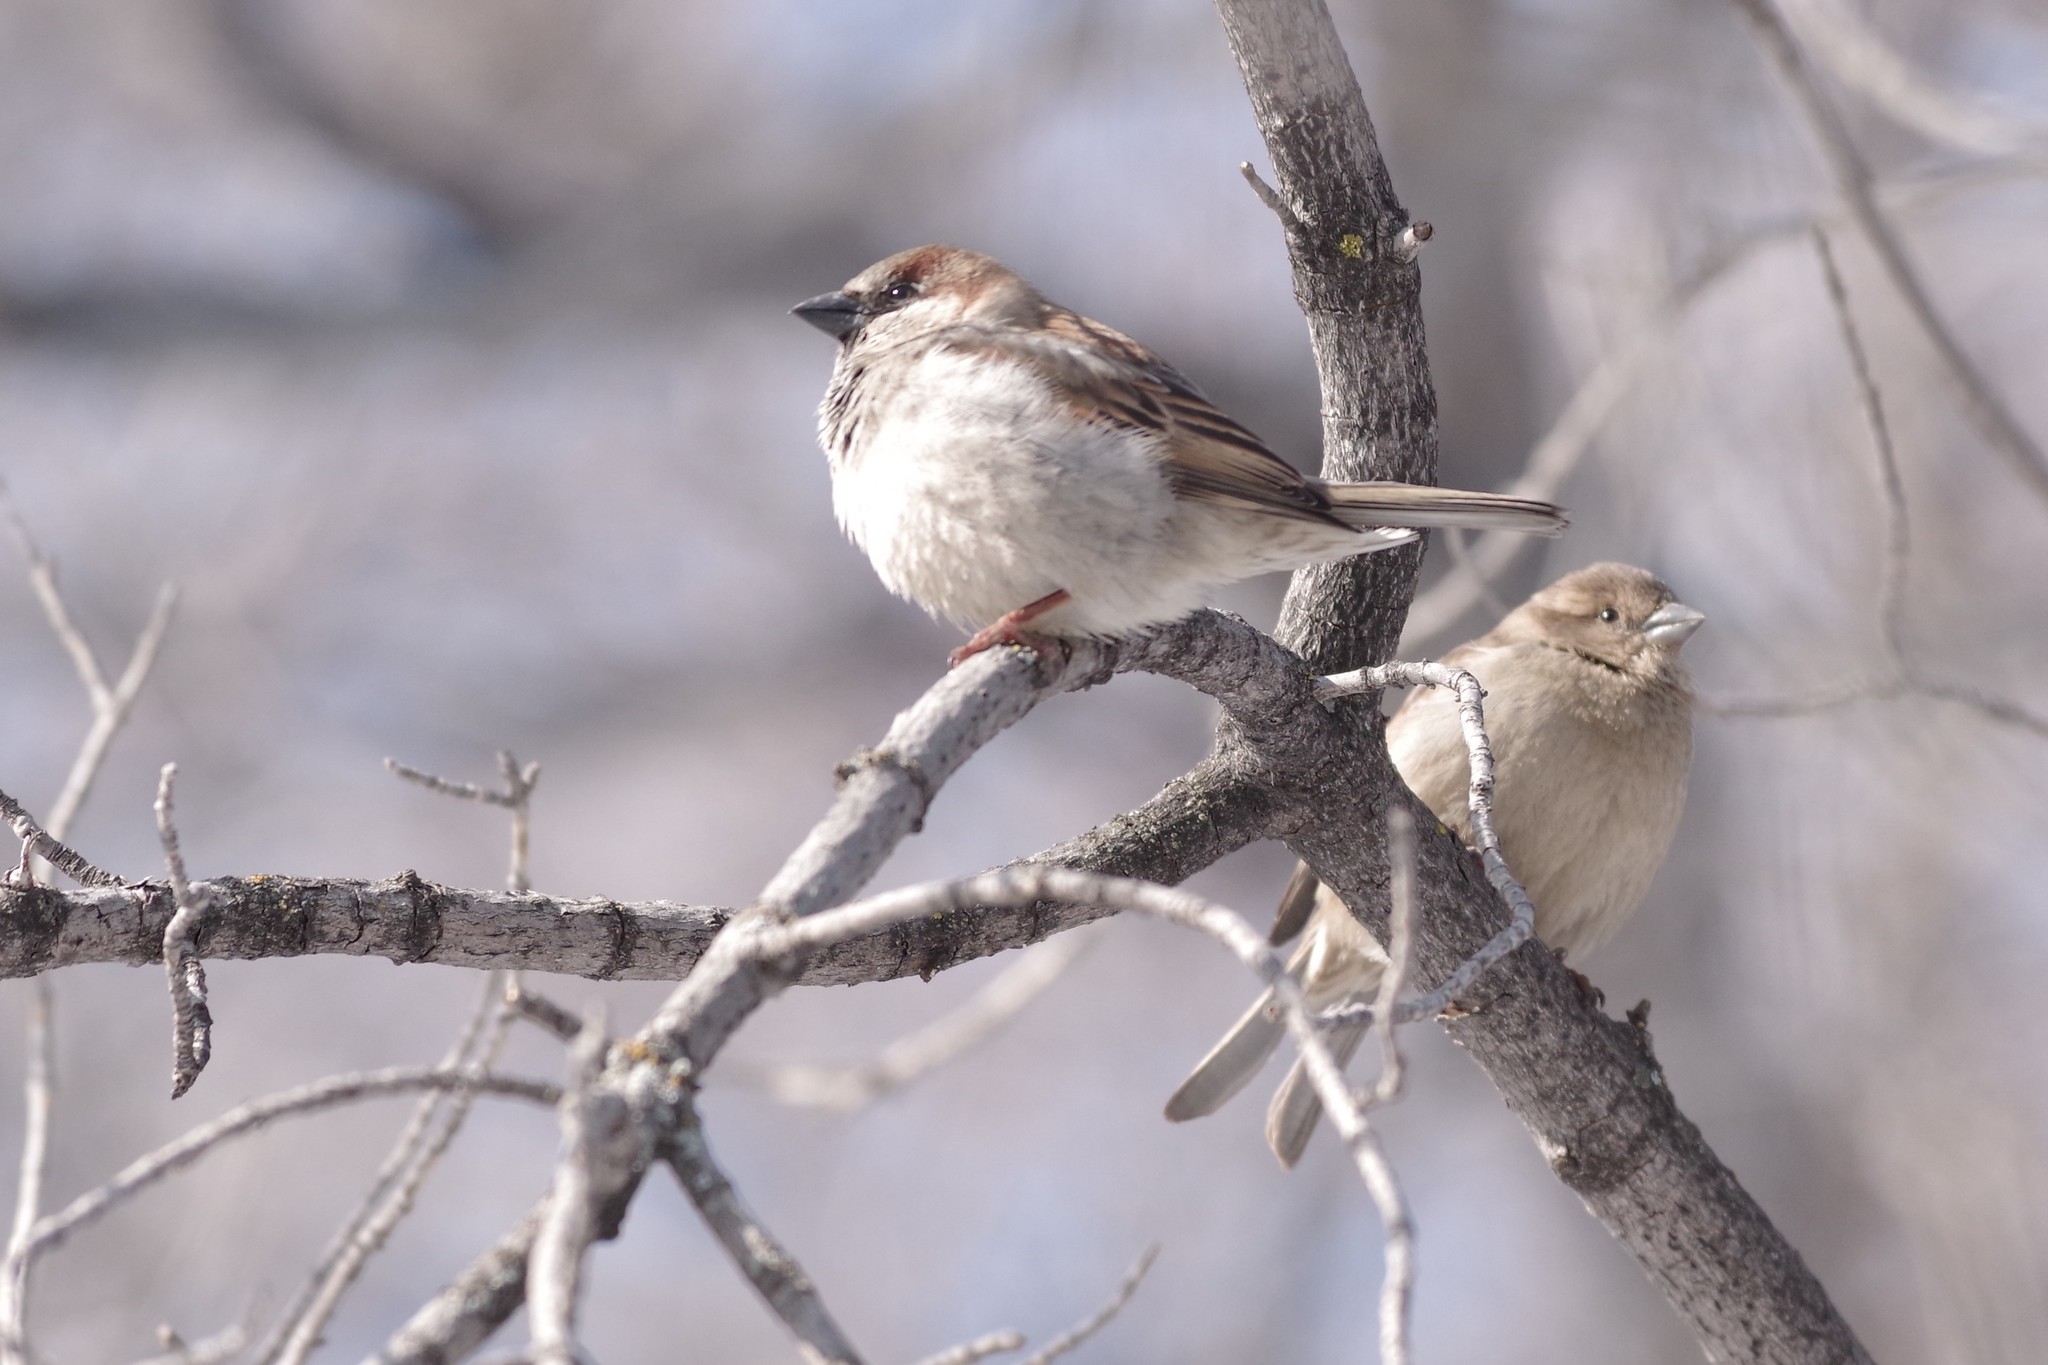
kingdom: Animalia
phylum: Chordata
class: Aves
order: Passeriformes
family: Passeridae
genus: Passer
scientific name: Passer domesticus
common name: House sparrow
